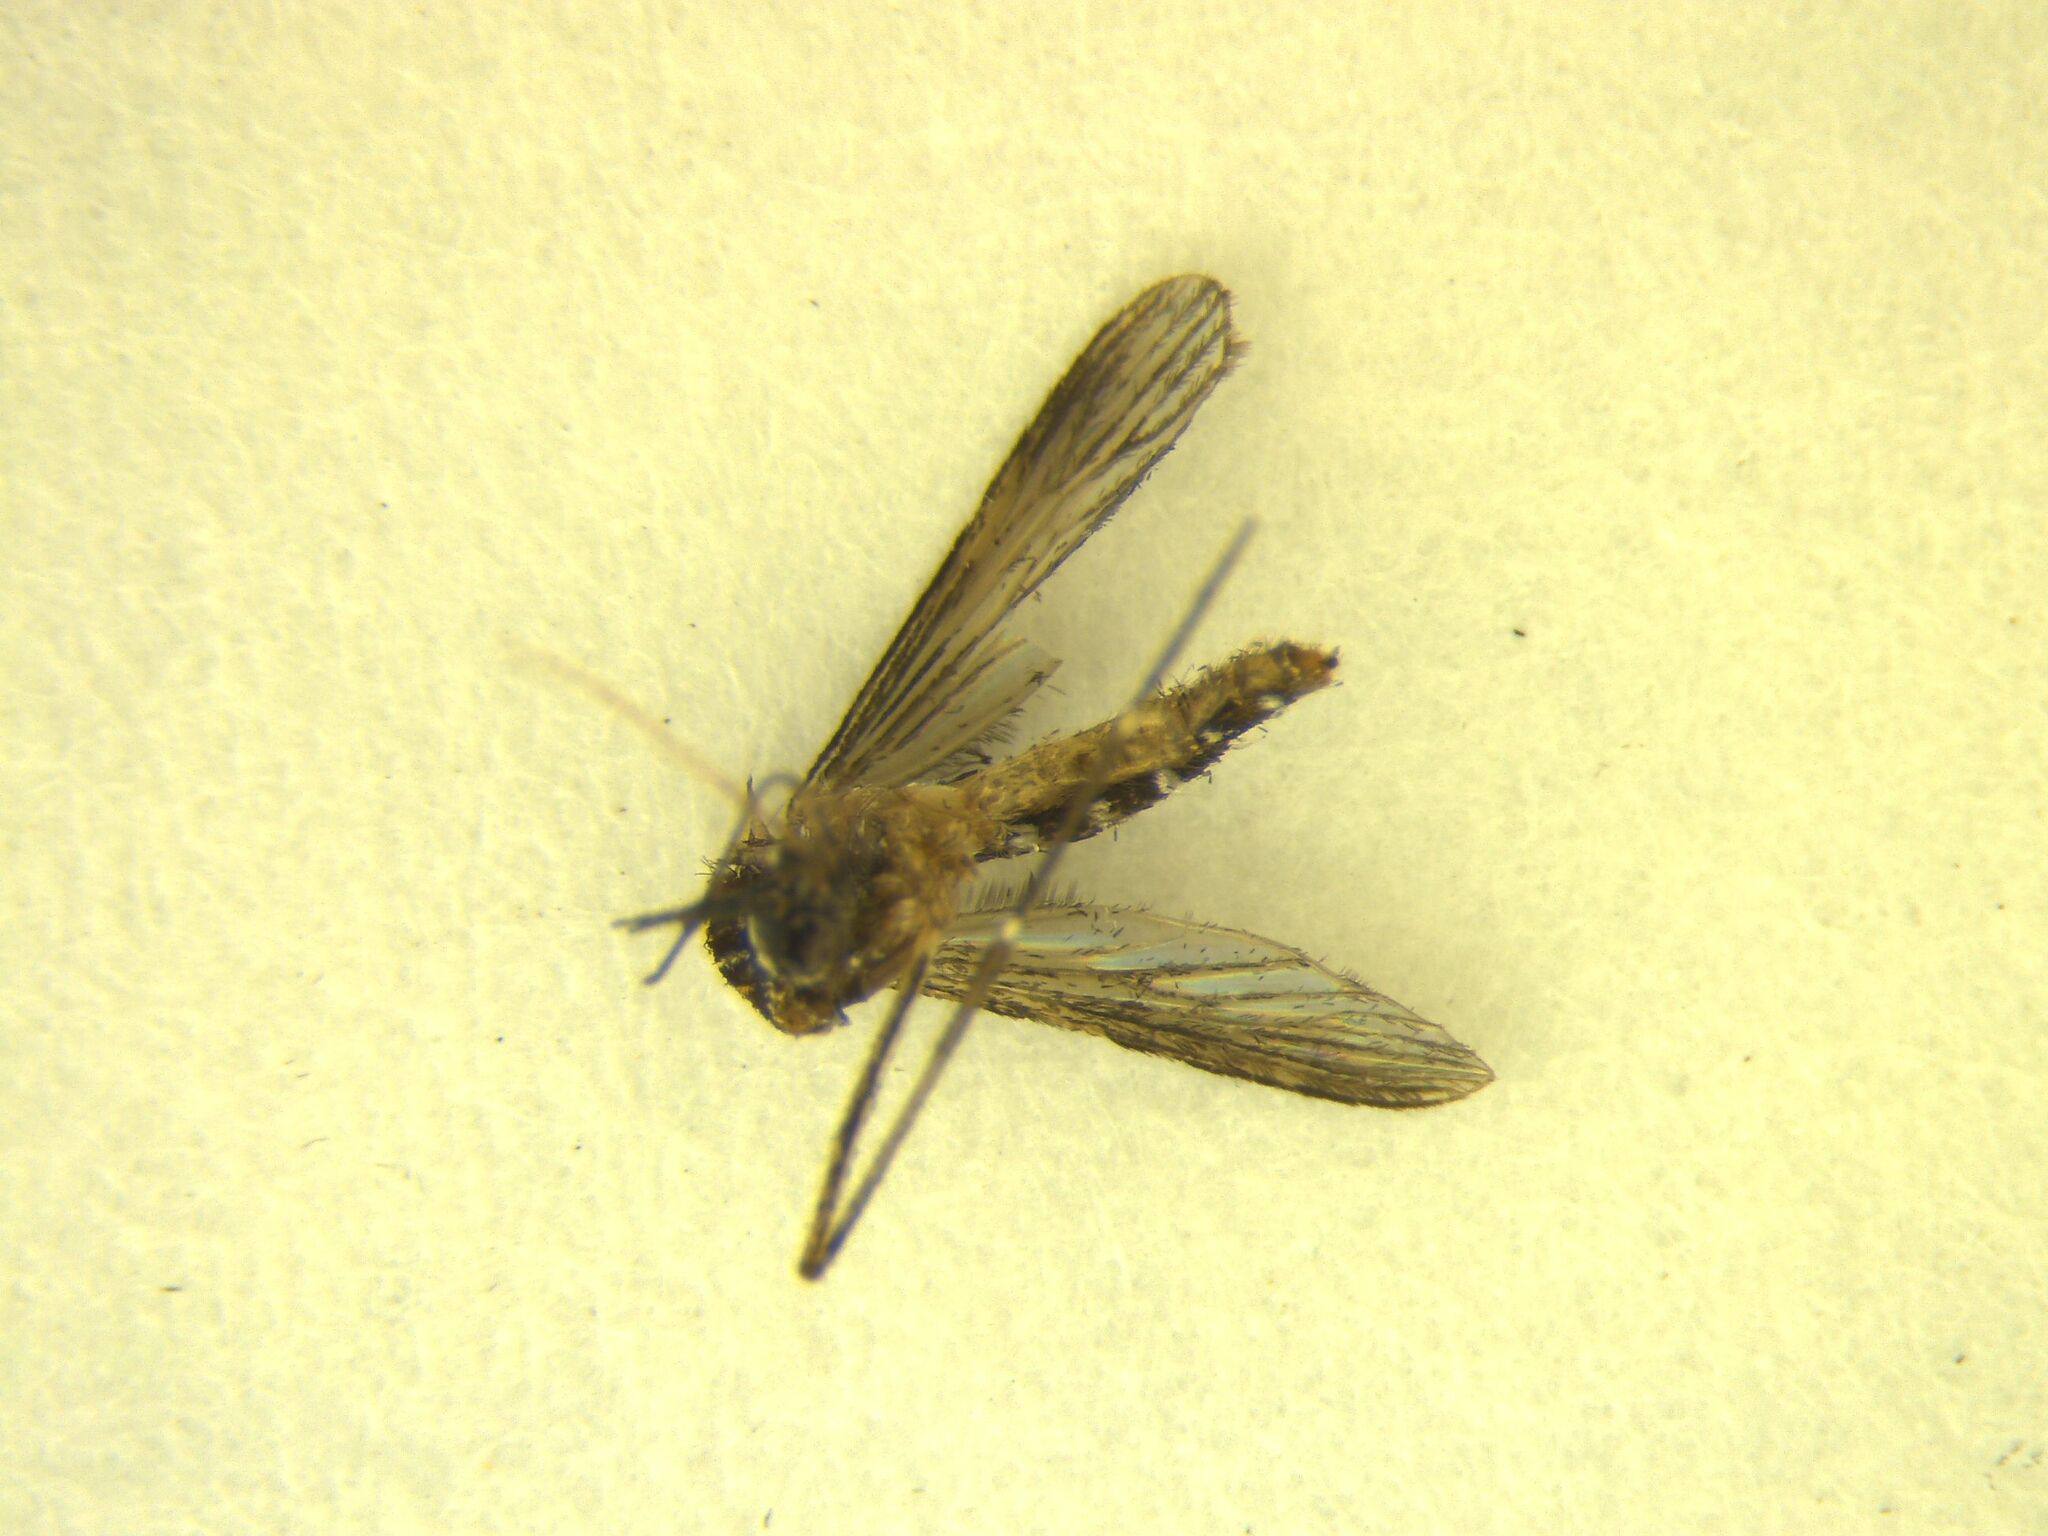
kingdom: Animalia
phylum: Arthropoda
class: Insecta
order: Diptera
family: Culicidae
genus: Aedes
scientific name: Aedes antipodeus
